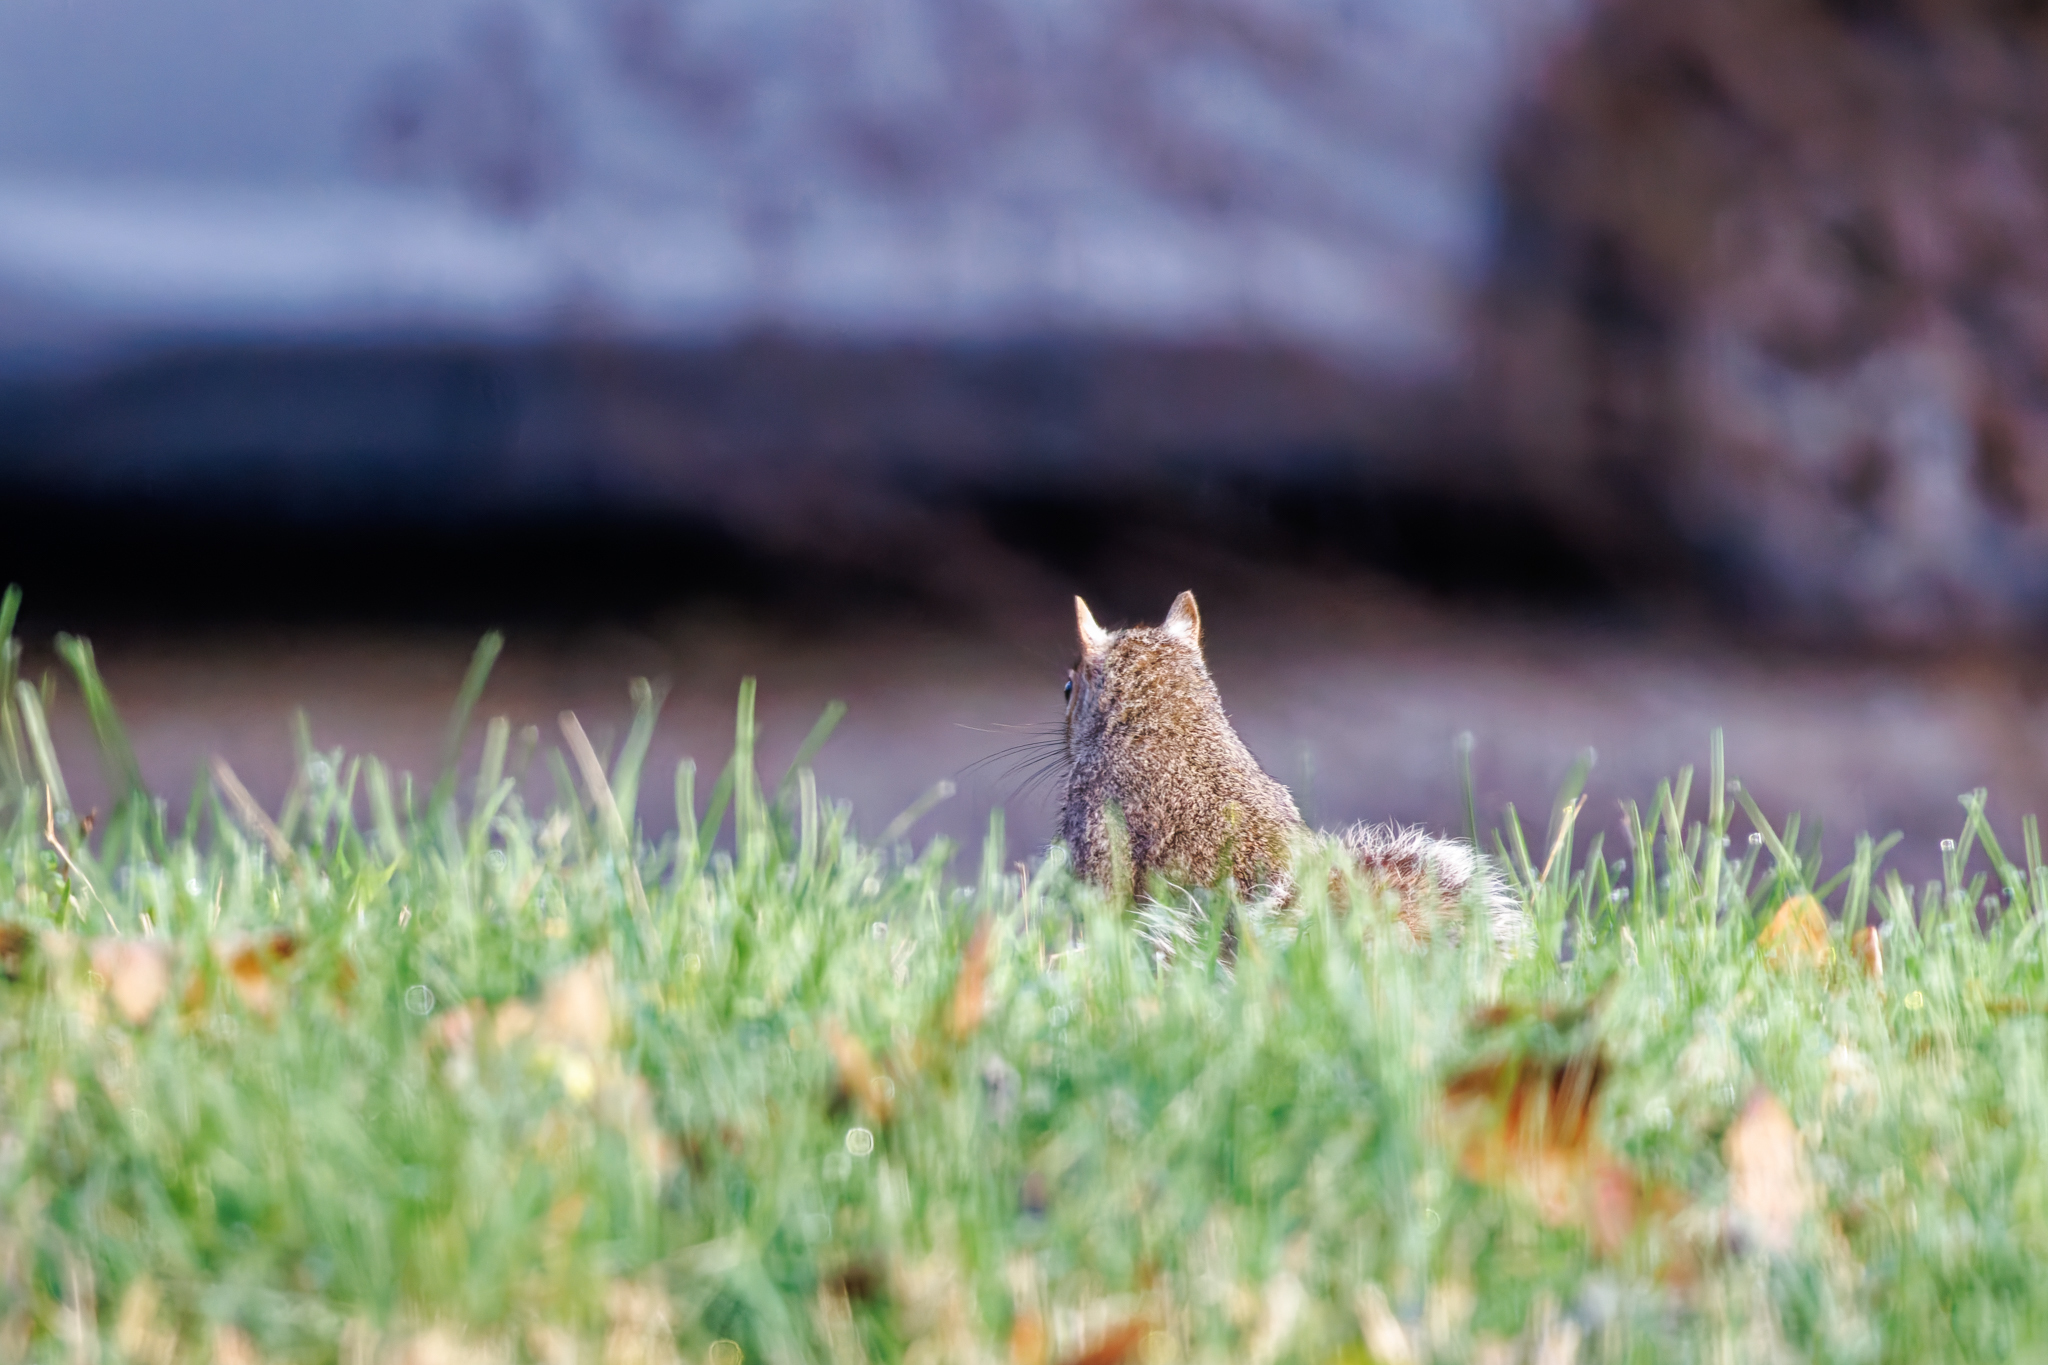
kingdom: Animalia
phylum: Chordata
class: Mammalia
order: Rodentia
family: Sciuridae
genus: Sciurus
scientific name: Sciurus carolinensis
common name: Eastern gray squirrel
